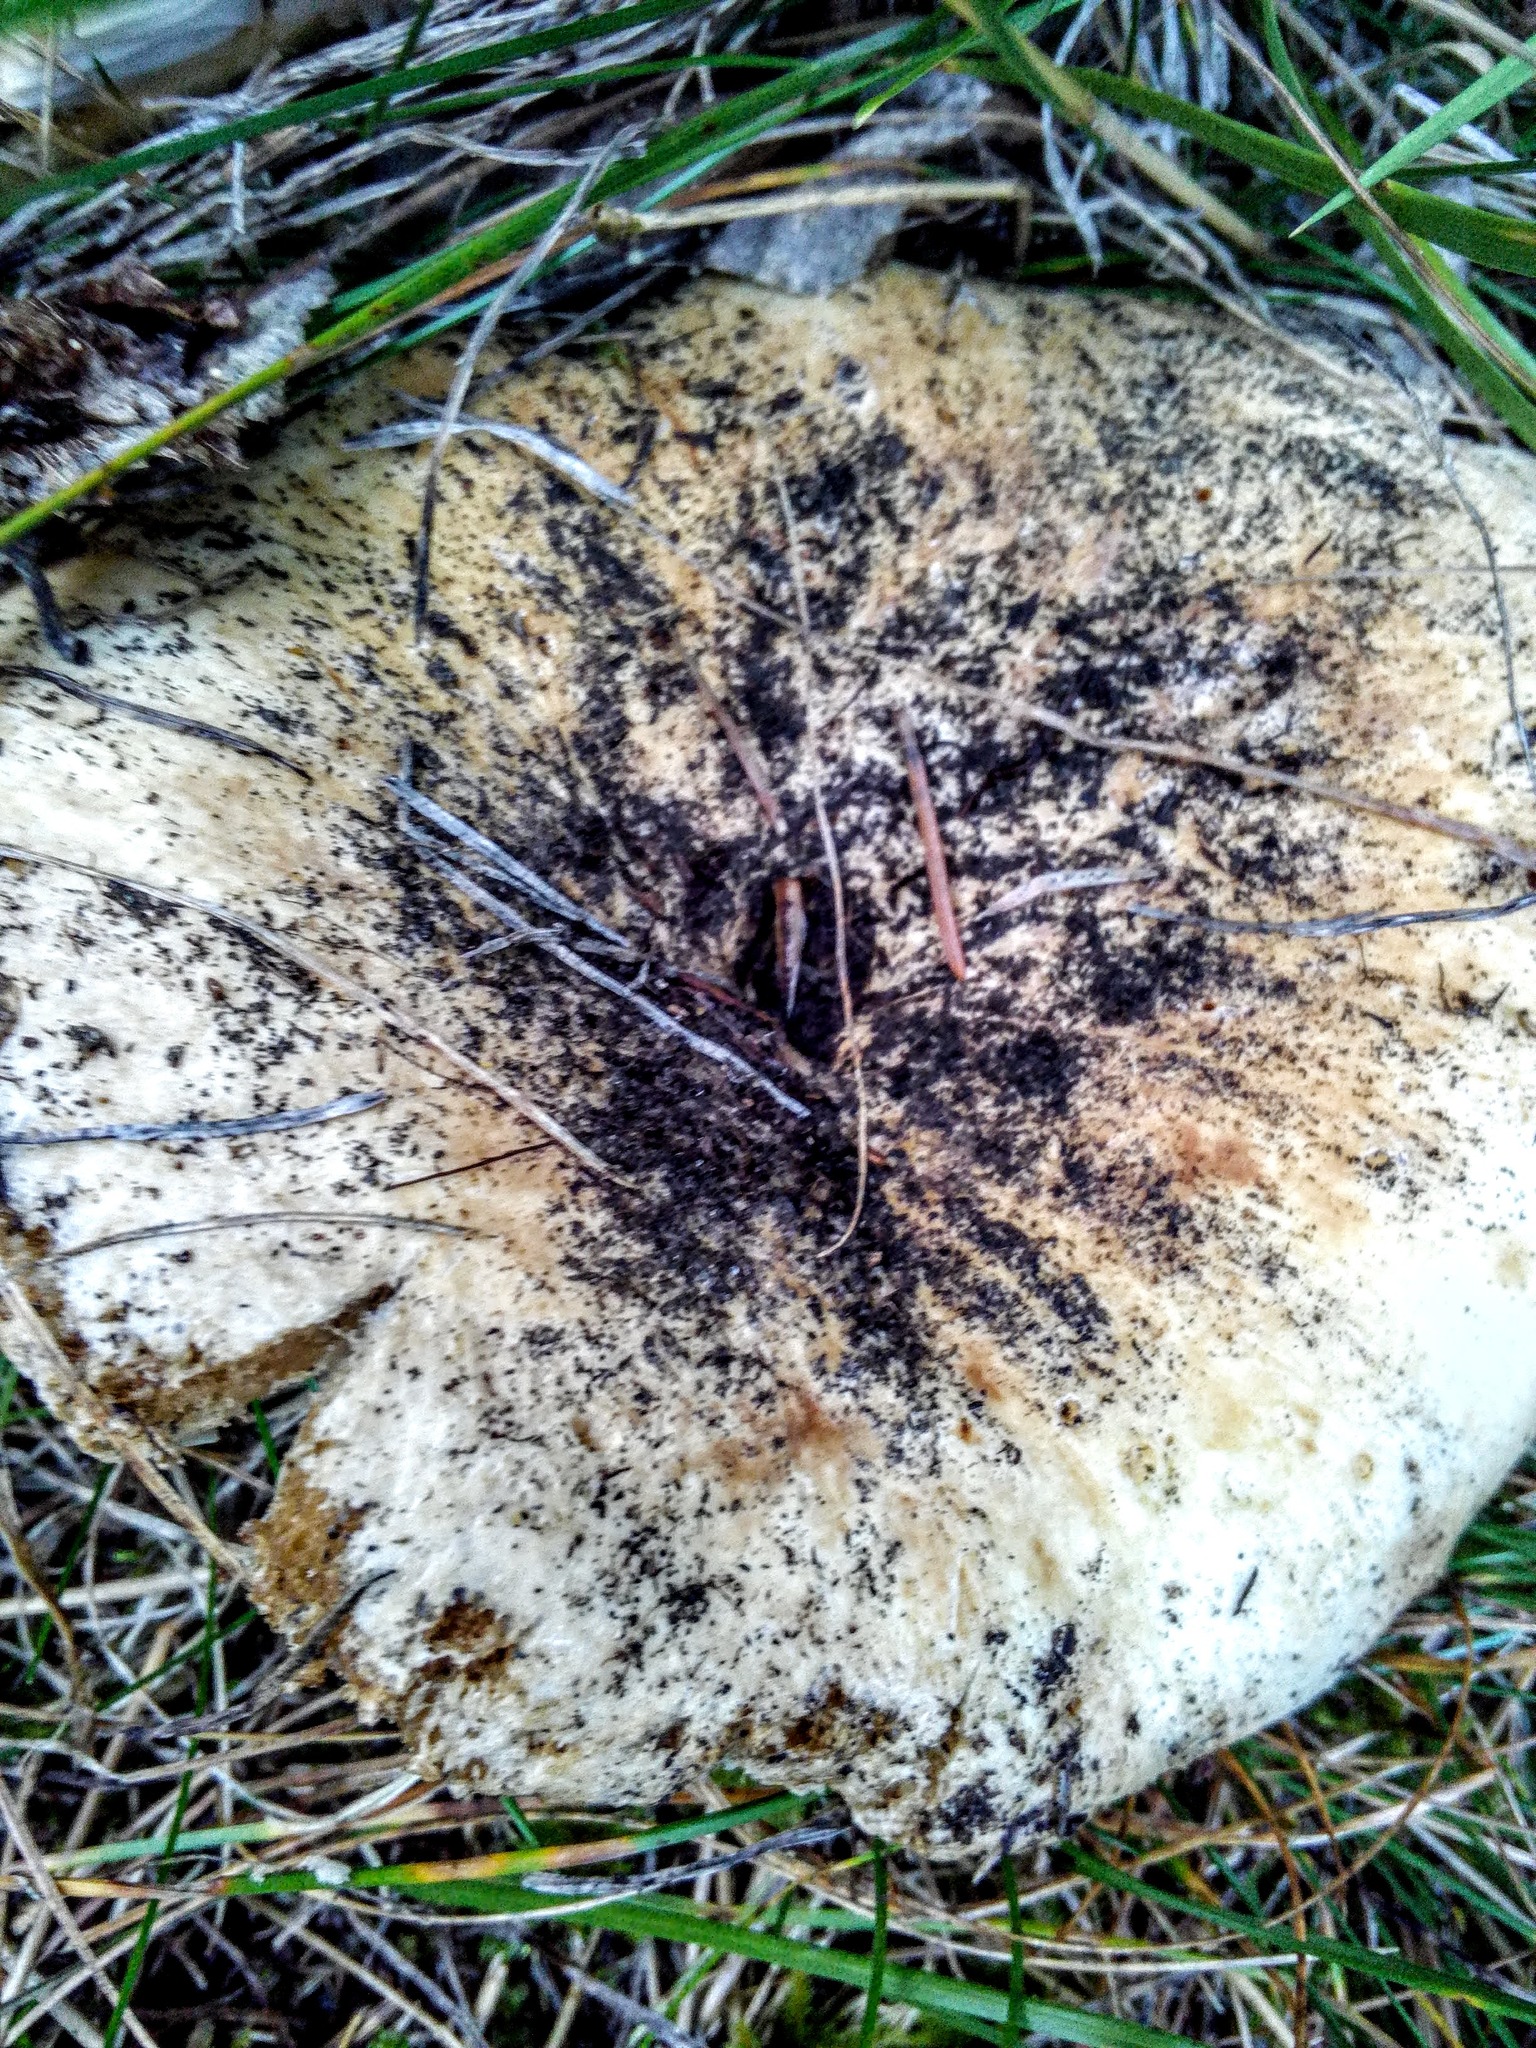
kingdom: Fungi
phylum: Basidiomycota
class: Agaricomycetes
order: Russulales
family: Russulaceae
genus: Russula
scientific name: Russula delica
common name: Milk white brittlegill
